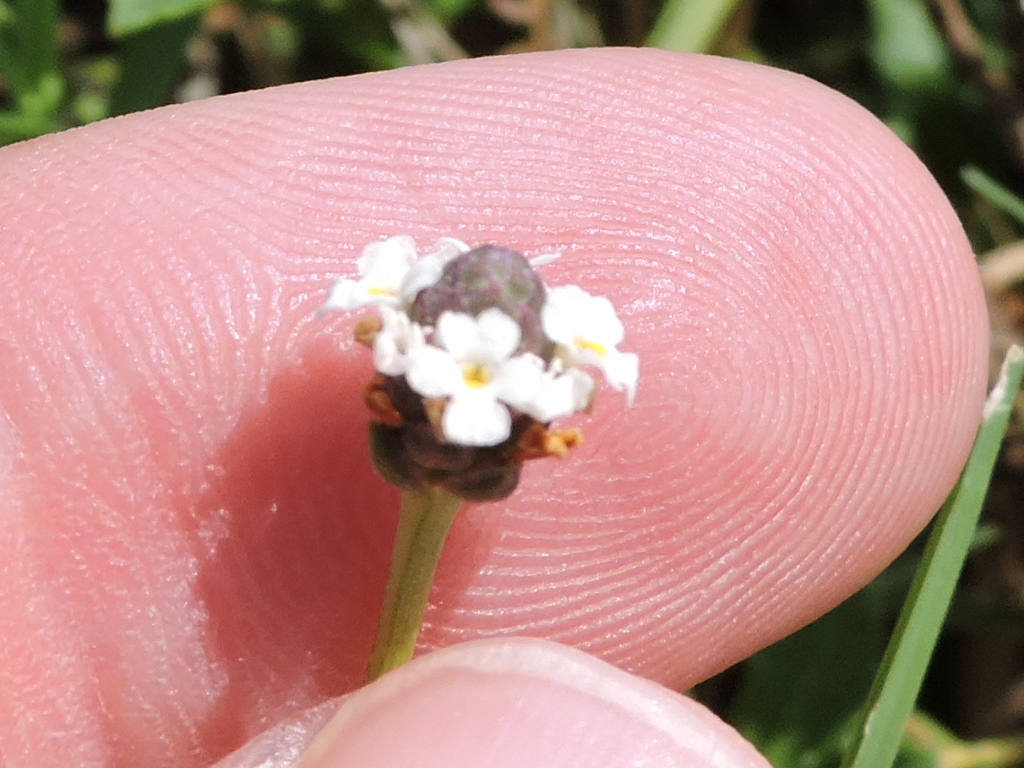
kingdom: Plantae
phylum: Tracheophyta
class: Magnoliopsida
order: Lamiales
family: Verbenaceae
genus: Phyla
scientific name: Phyla nodiflora
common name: Frogfruit
